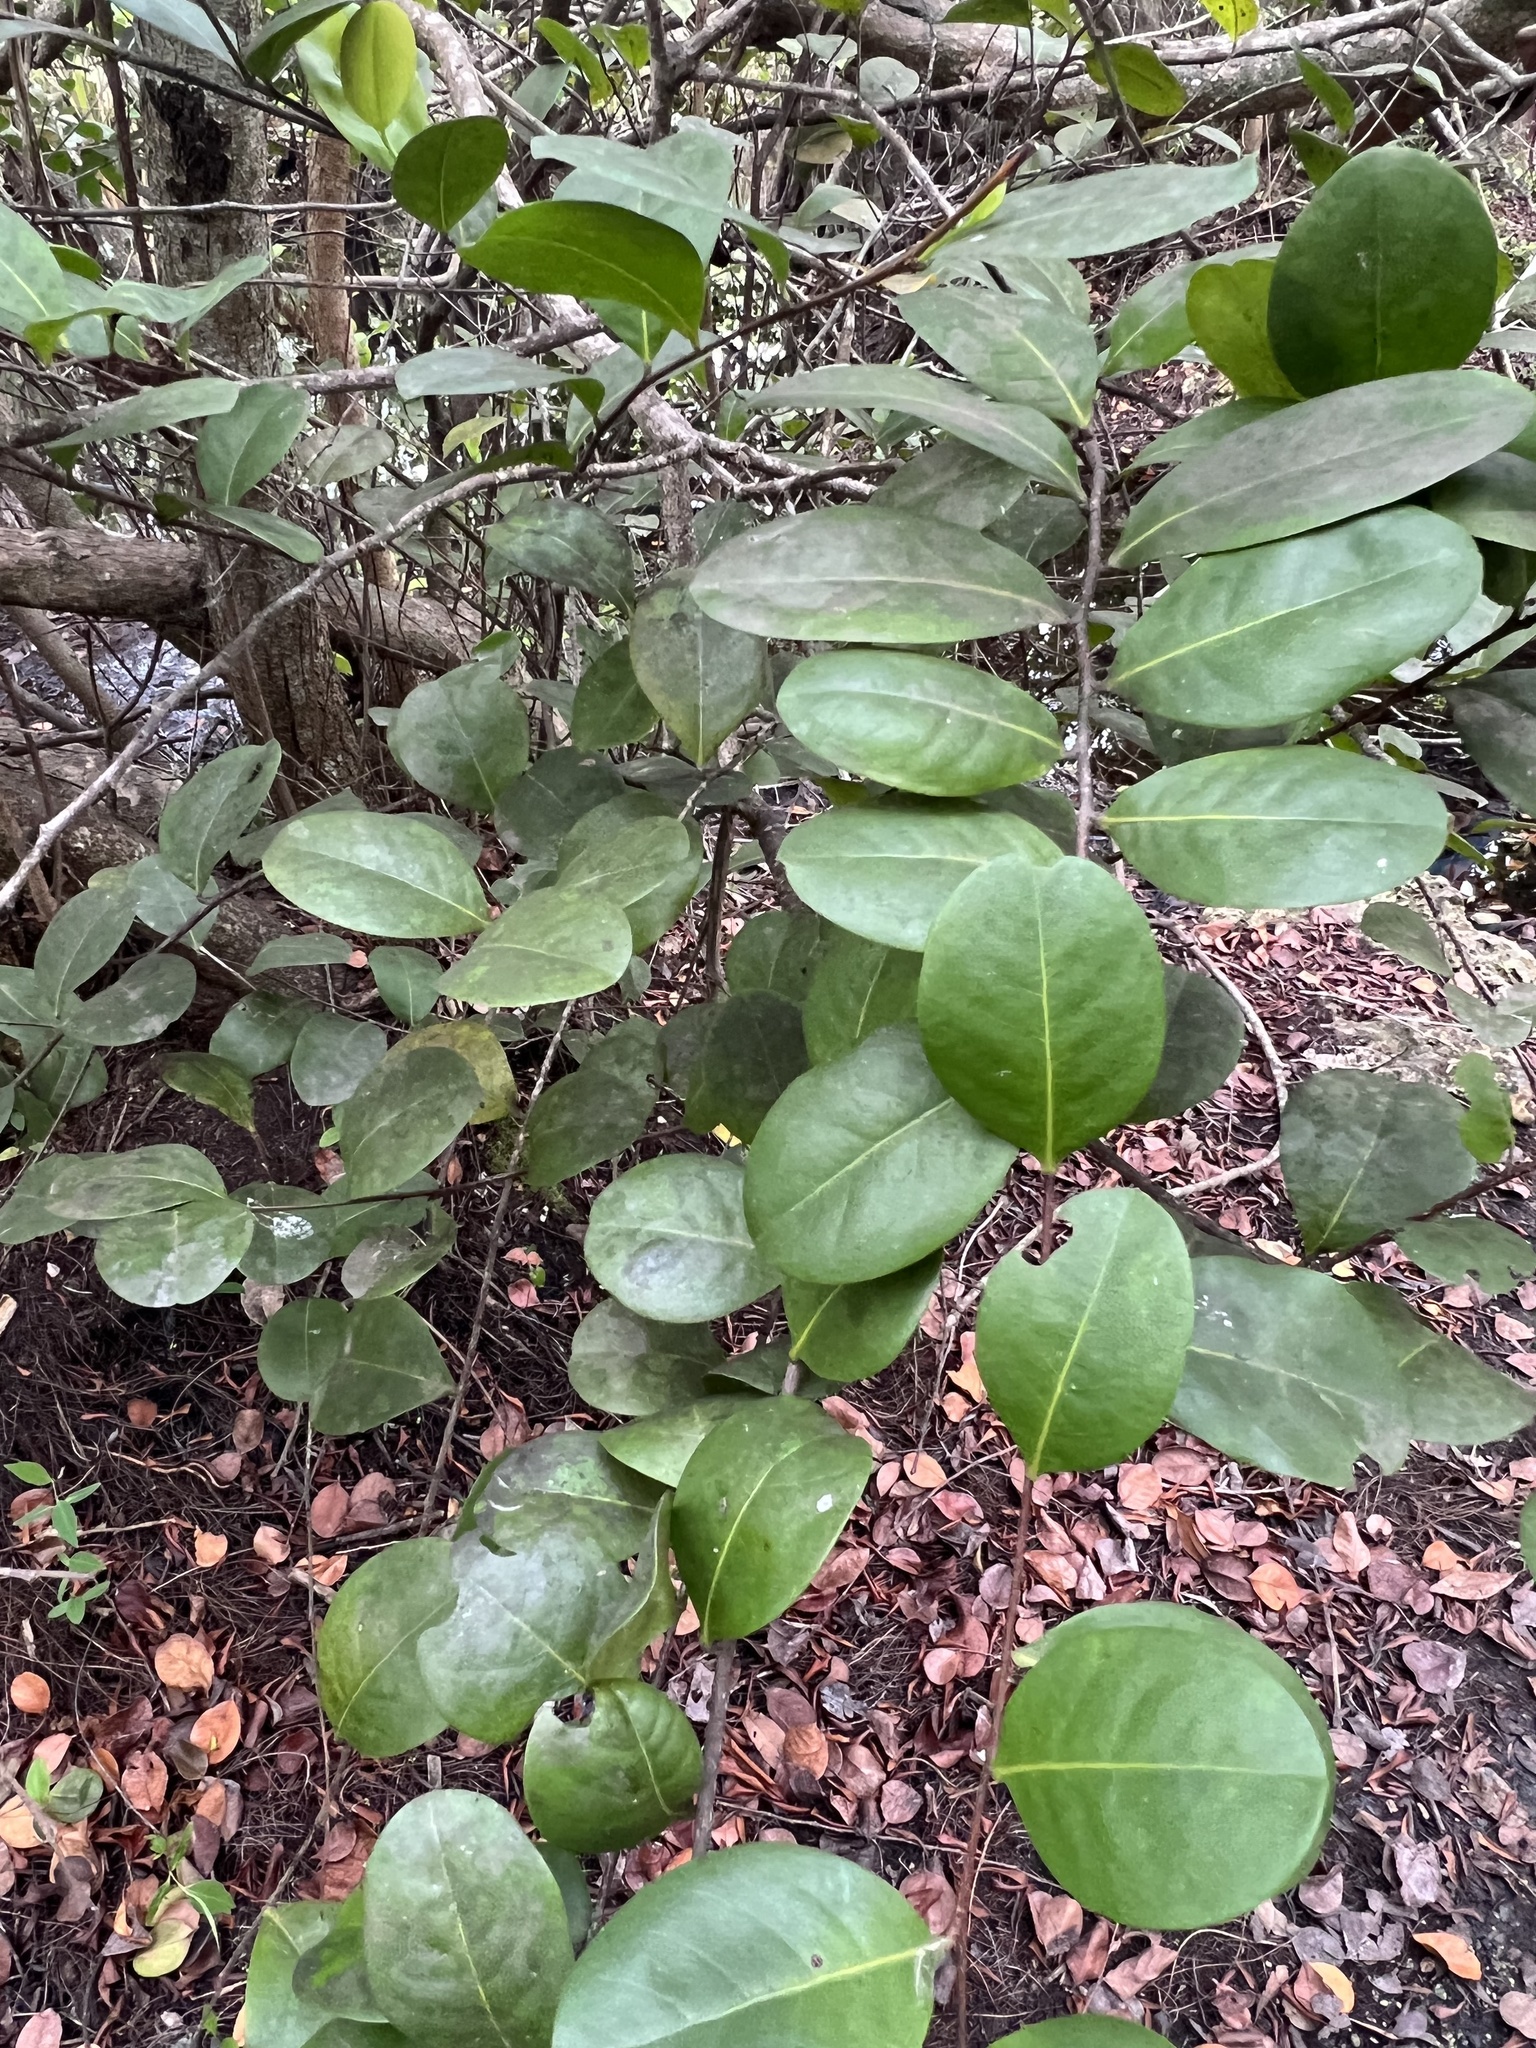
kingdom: Plantae
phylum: Tracheophyta
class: Magnoliopsida
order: Malpighiales
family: Chrysobalanaceae
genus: Chrysobalanus
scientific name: Chrysobalanus icaco
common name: Coco plum
